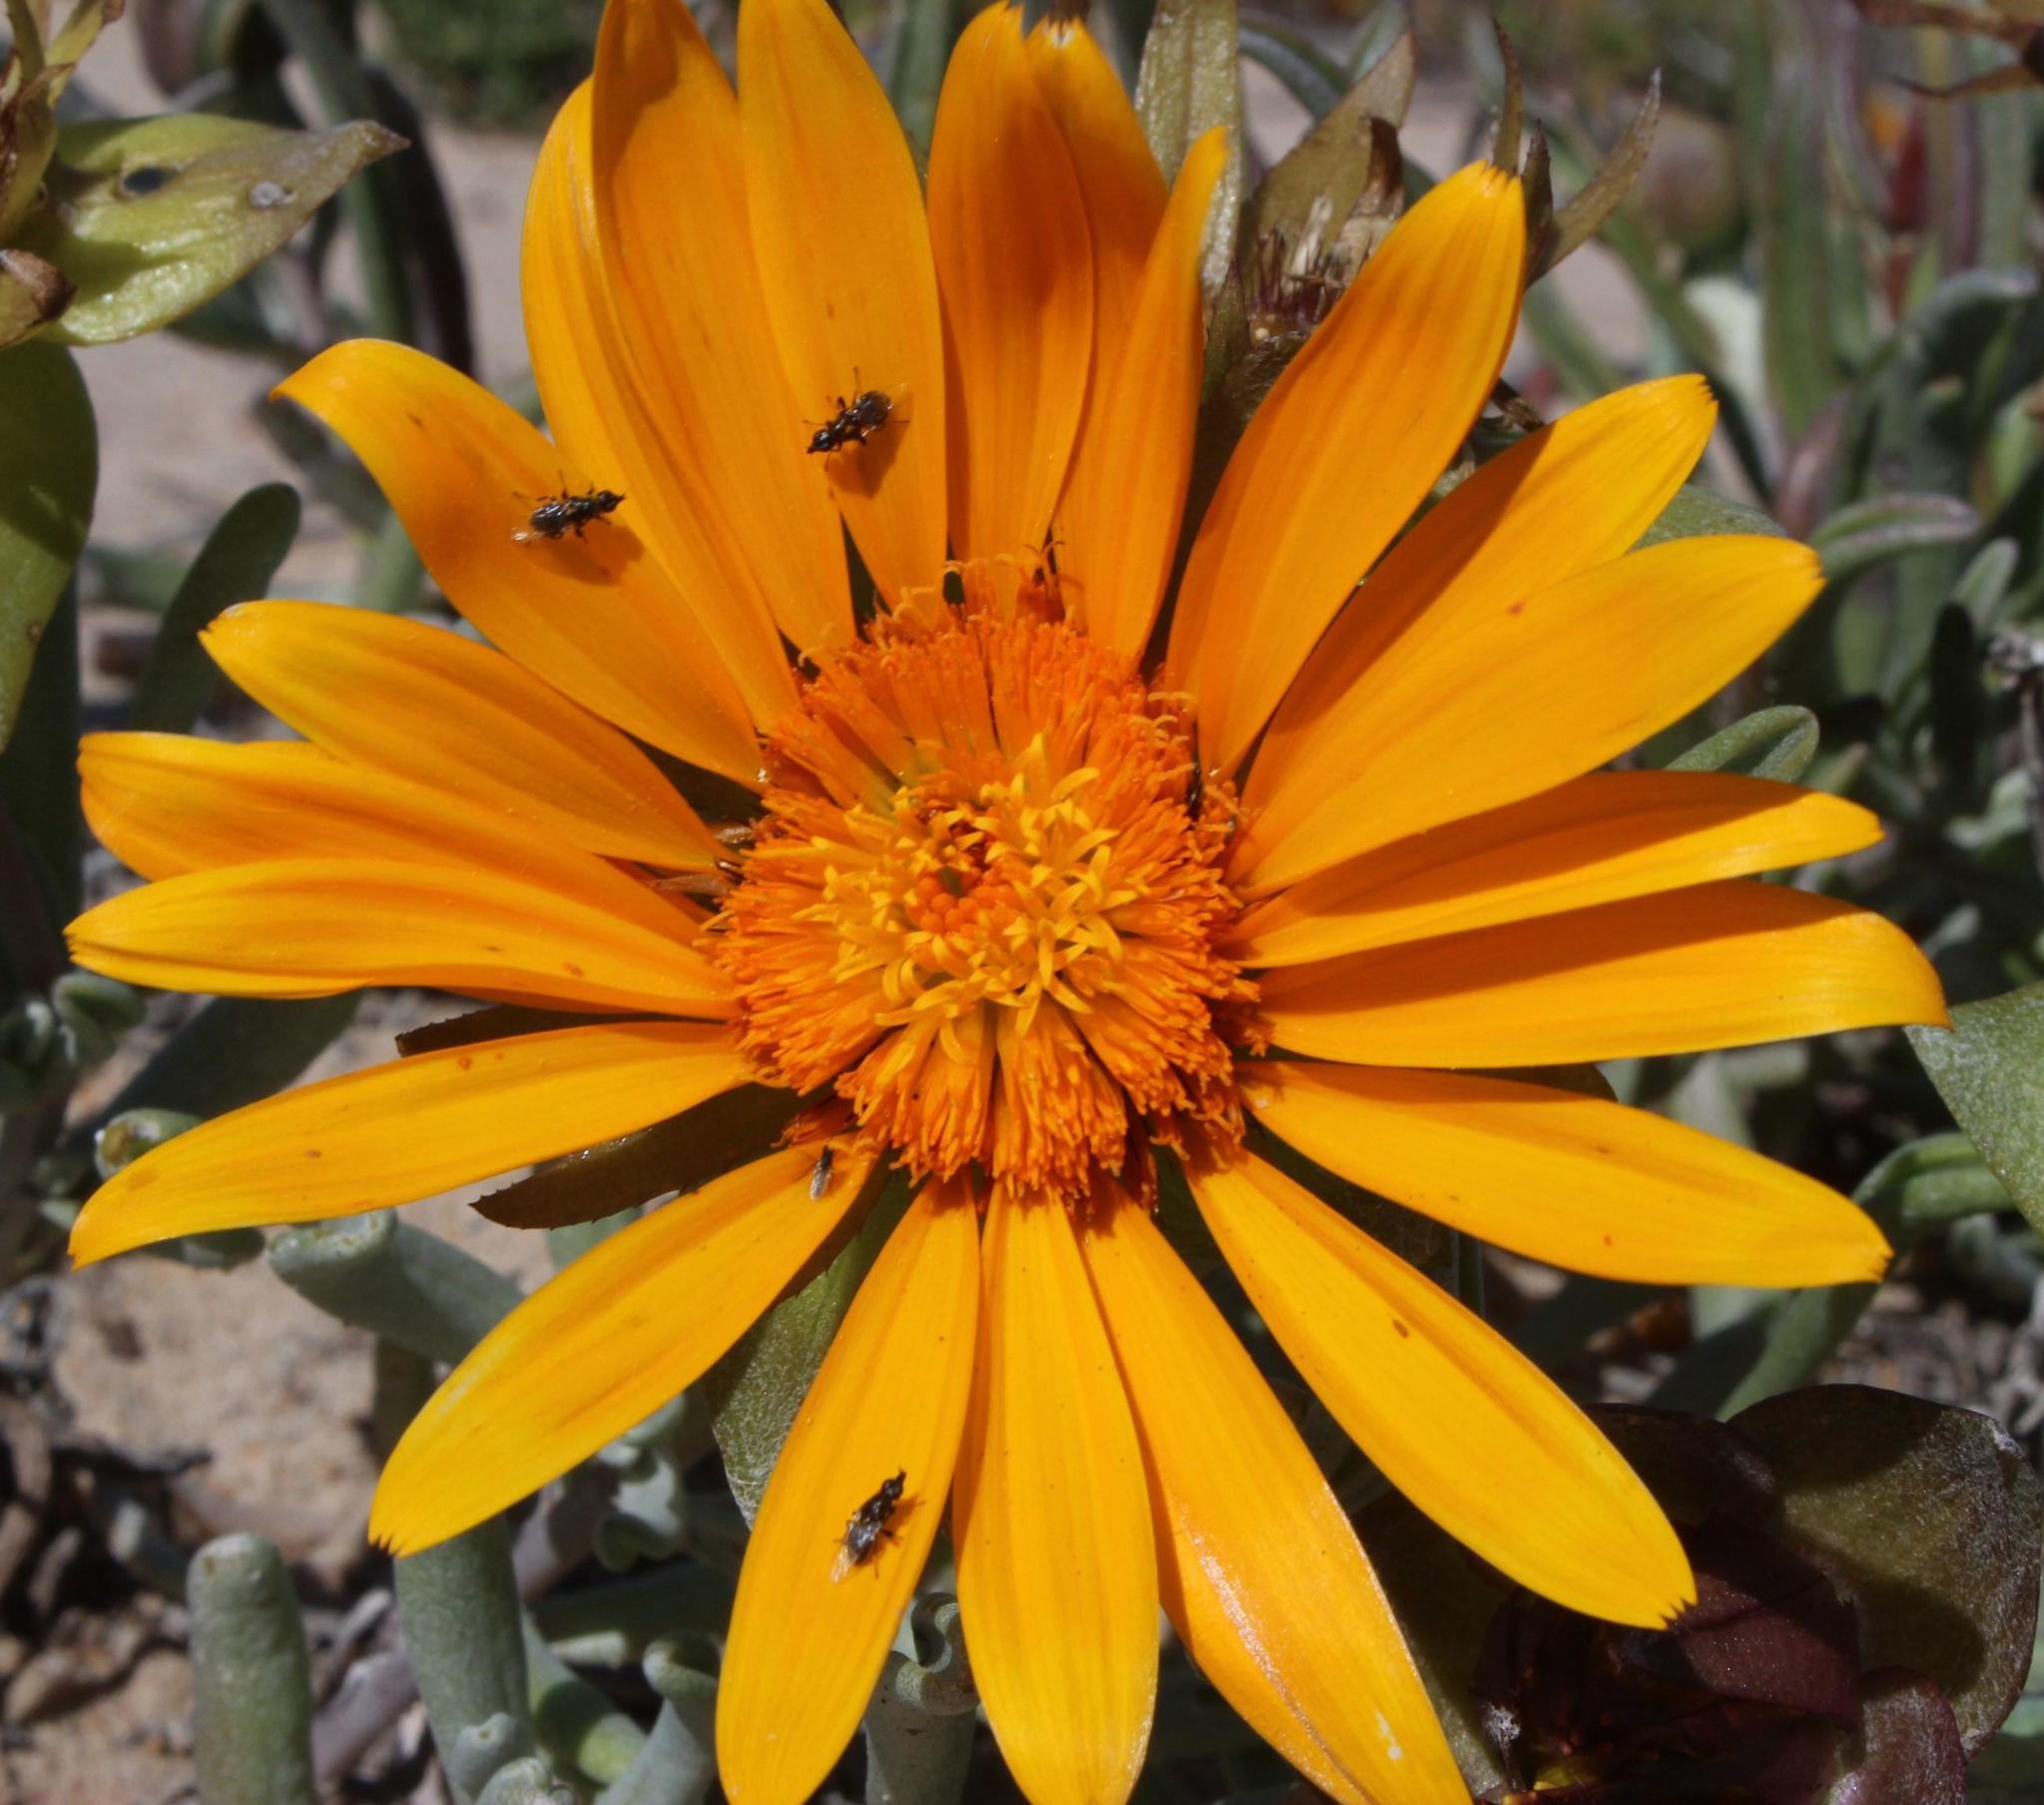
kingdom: Plantae
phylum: Tracheophyta
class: Magnoliopsida
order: Asterales
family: Asteraceae
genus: Didelta
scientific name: Didelta carnosa
